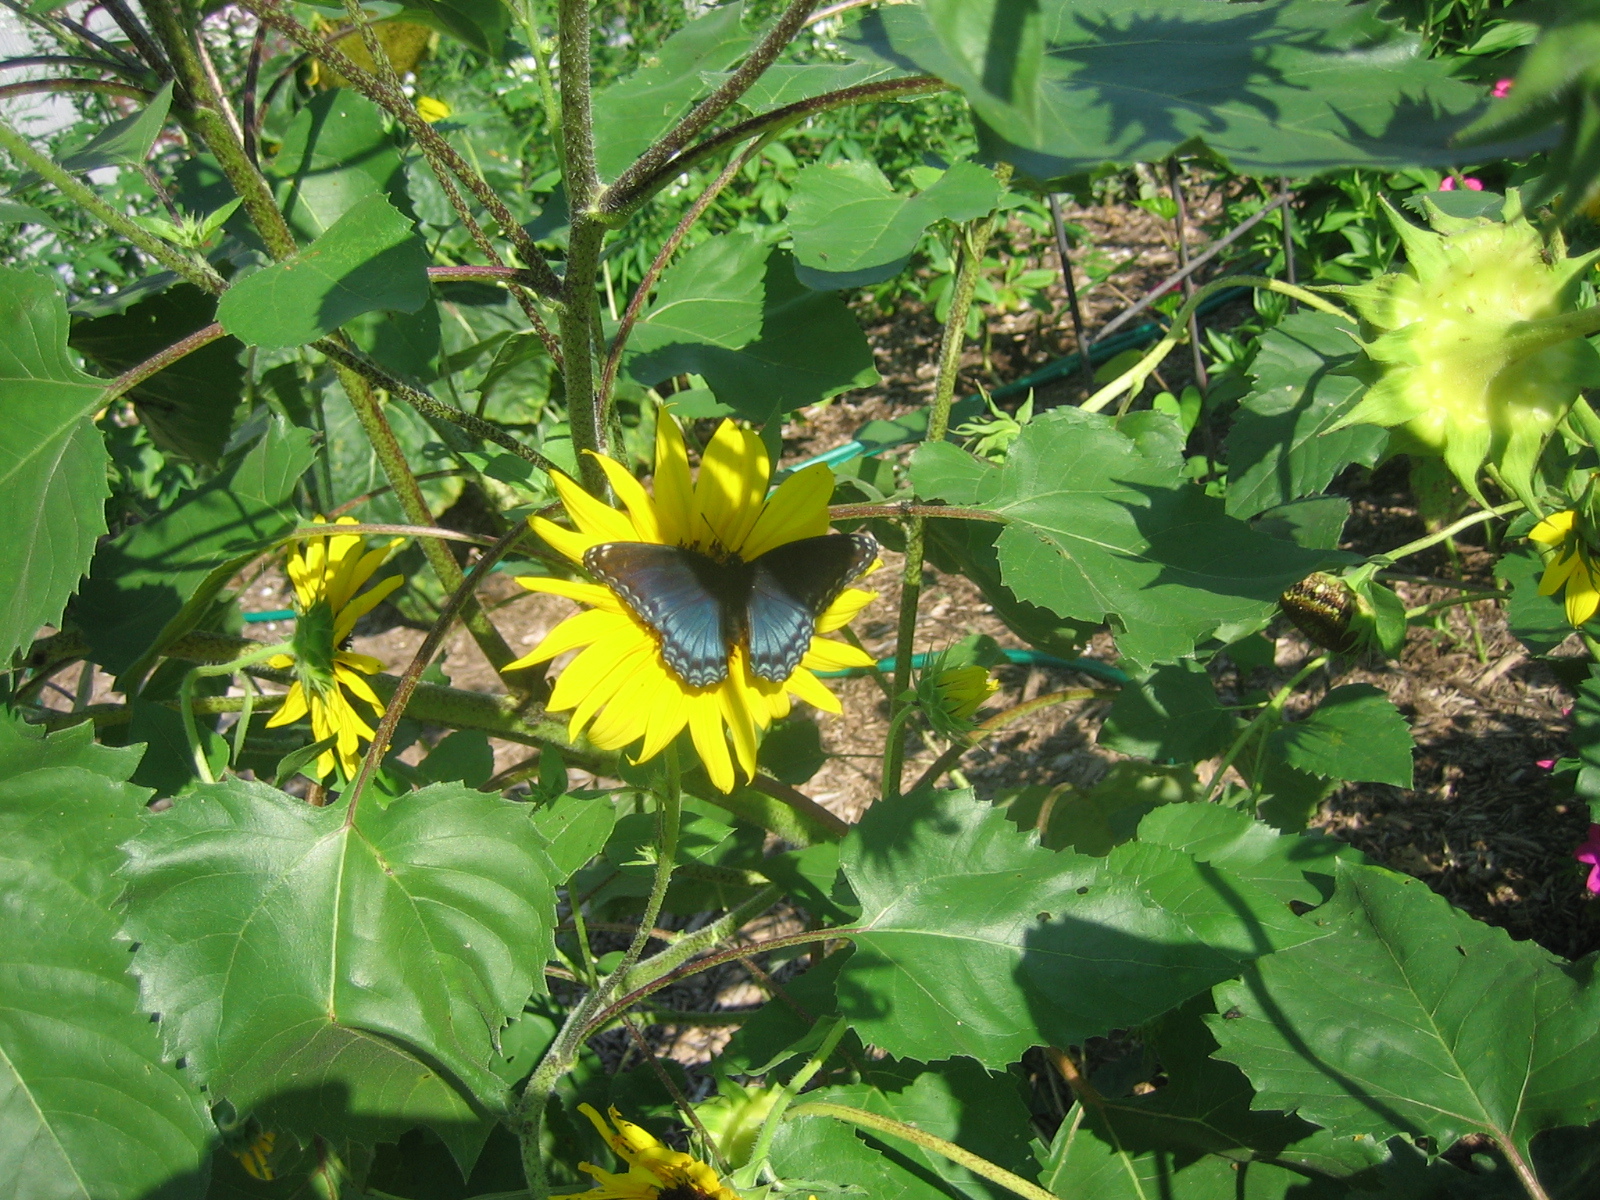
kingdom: Animalia
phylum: Arthropoda
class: Insecta
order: Lepidoptera
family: Nymphalidae
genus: Limenitis
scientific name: Limenitis arthemis
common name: Red-spotted admiral
